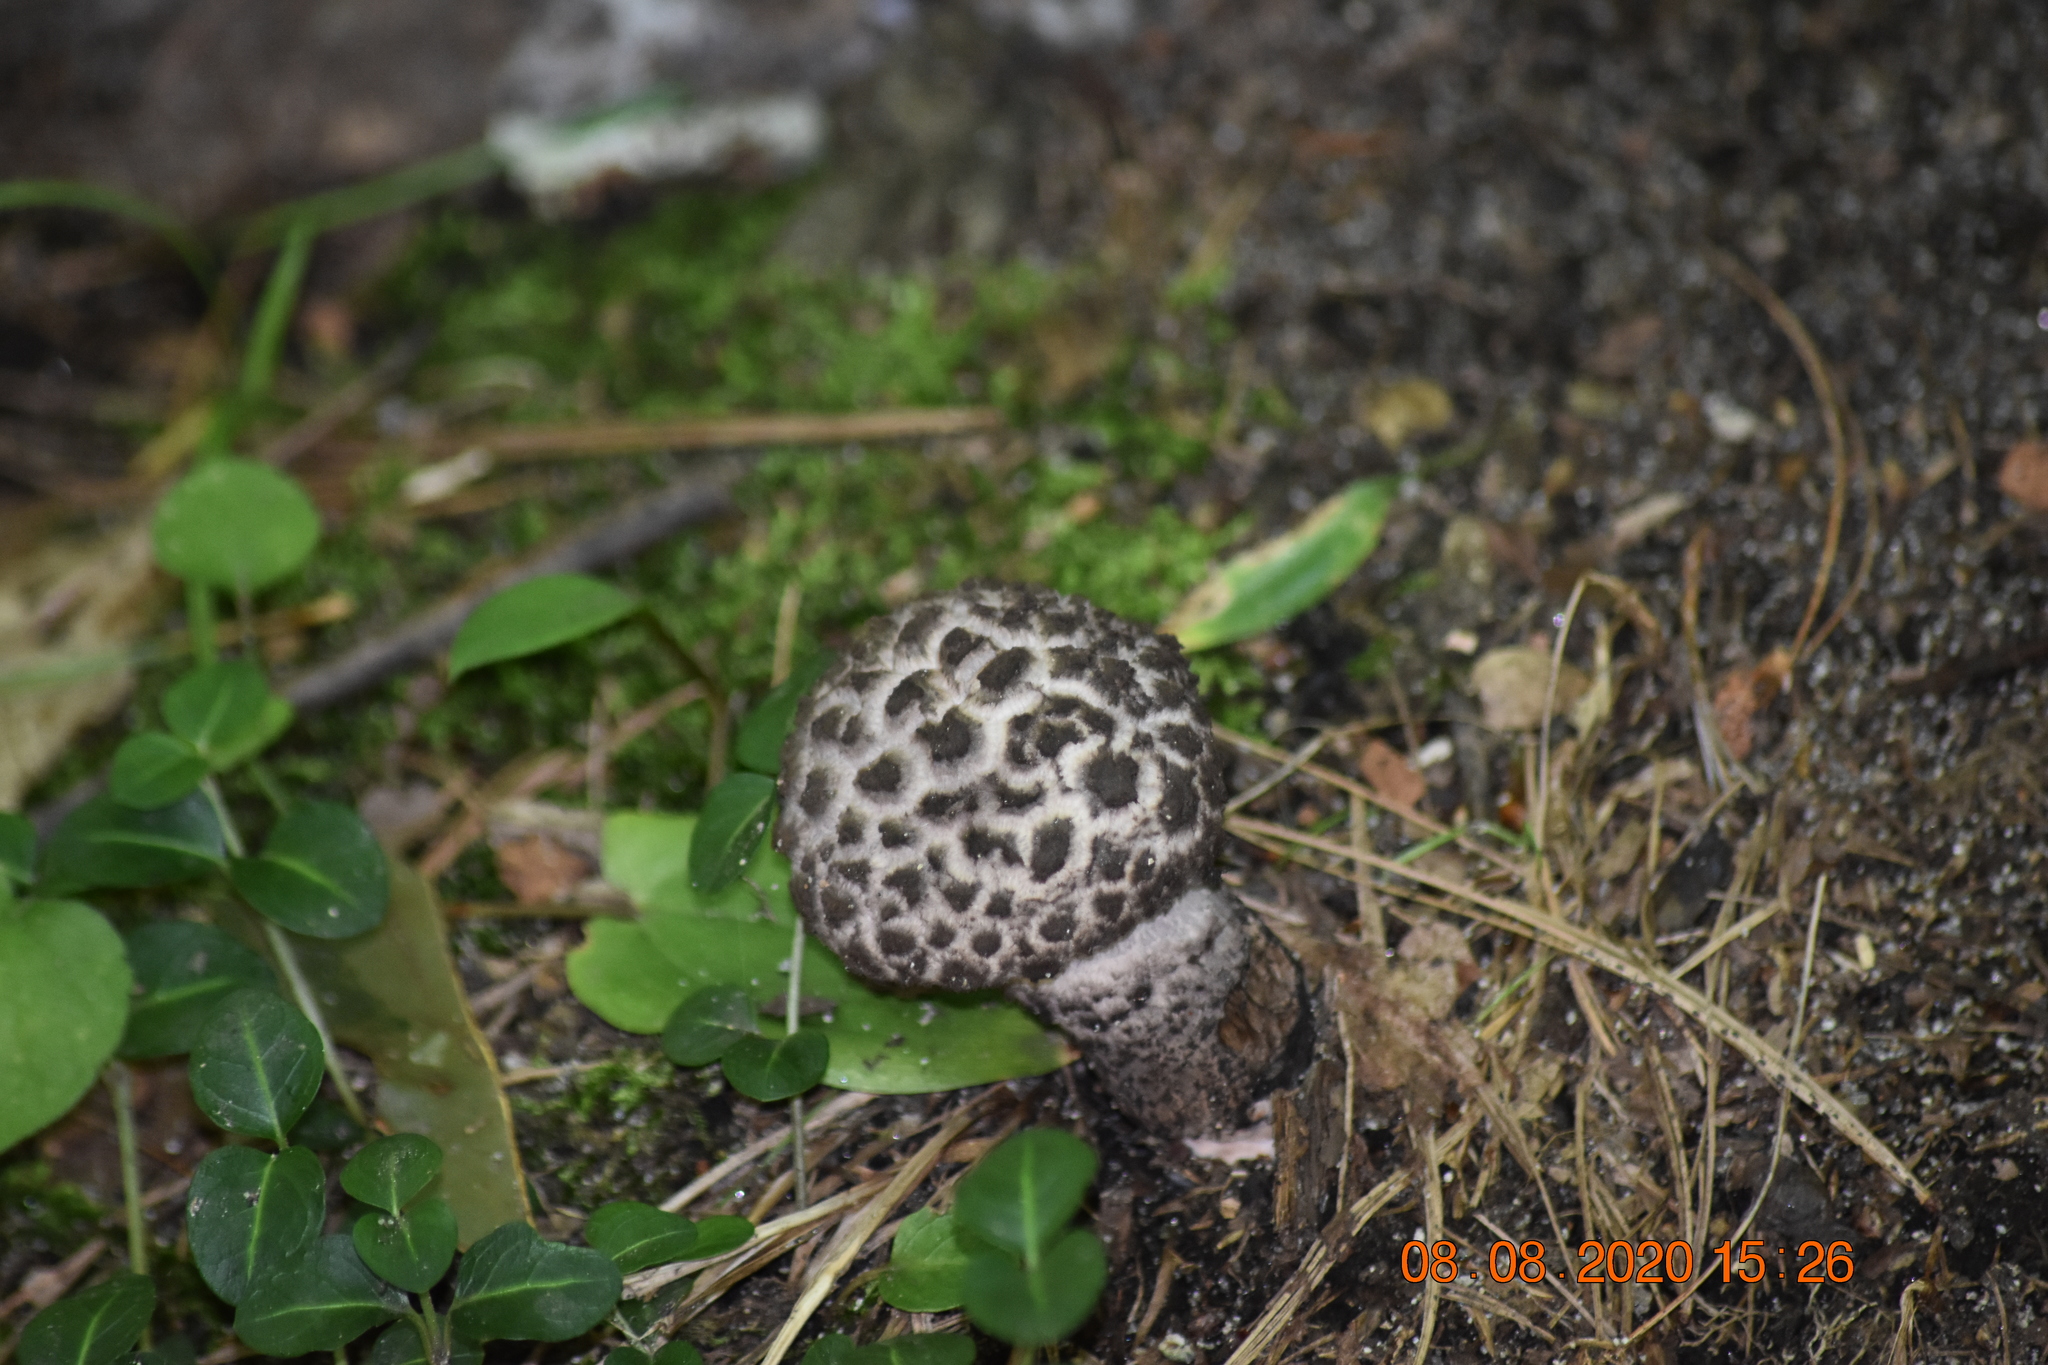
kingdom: Fungi
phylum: Basidiomycota
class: Agaricomycetes
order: Boletales
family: Boletaceae
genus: Strobilomyces
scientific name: Strobilomyces strobilaceus
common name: Old man of the woods
